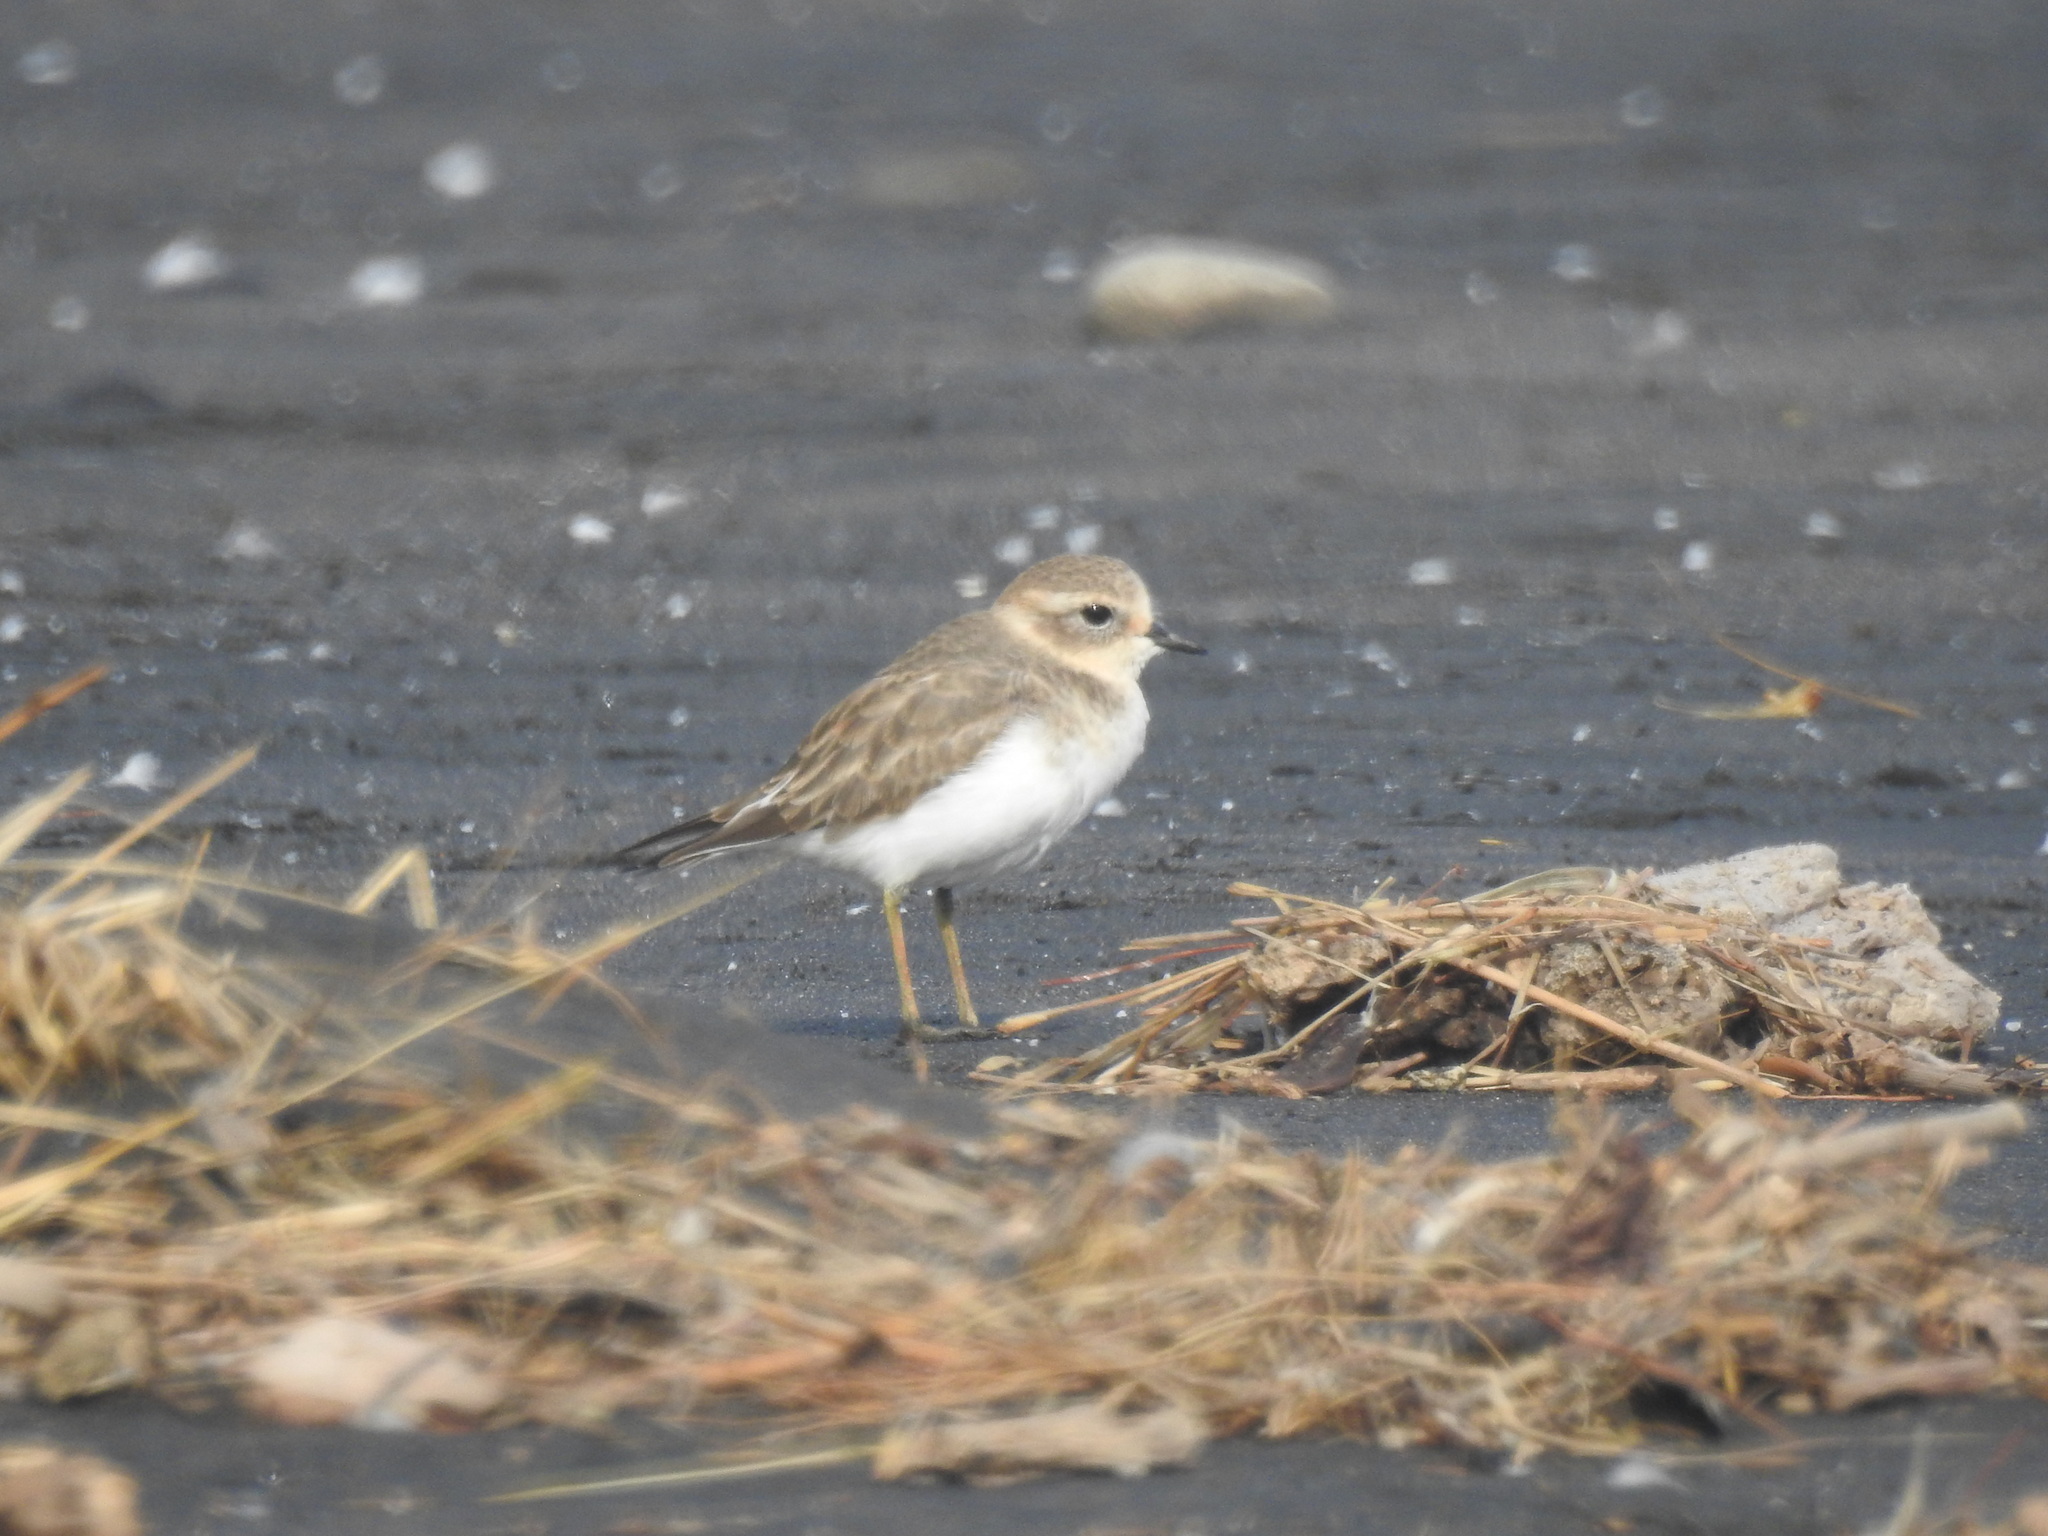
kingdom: Animalia
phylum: Chordata
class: Aves
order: Charadriiformes
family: Charadriidae
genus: Anarhynchus
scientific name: Anarhynchus
